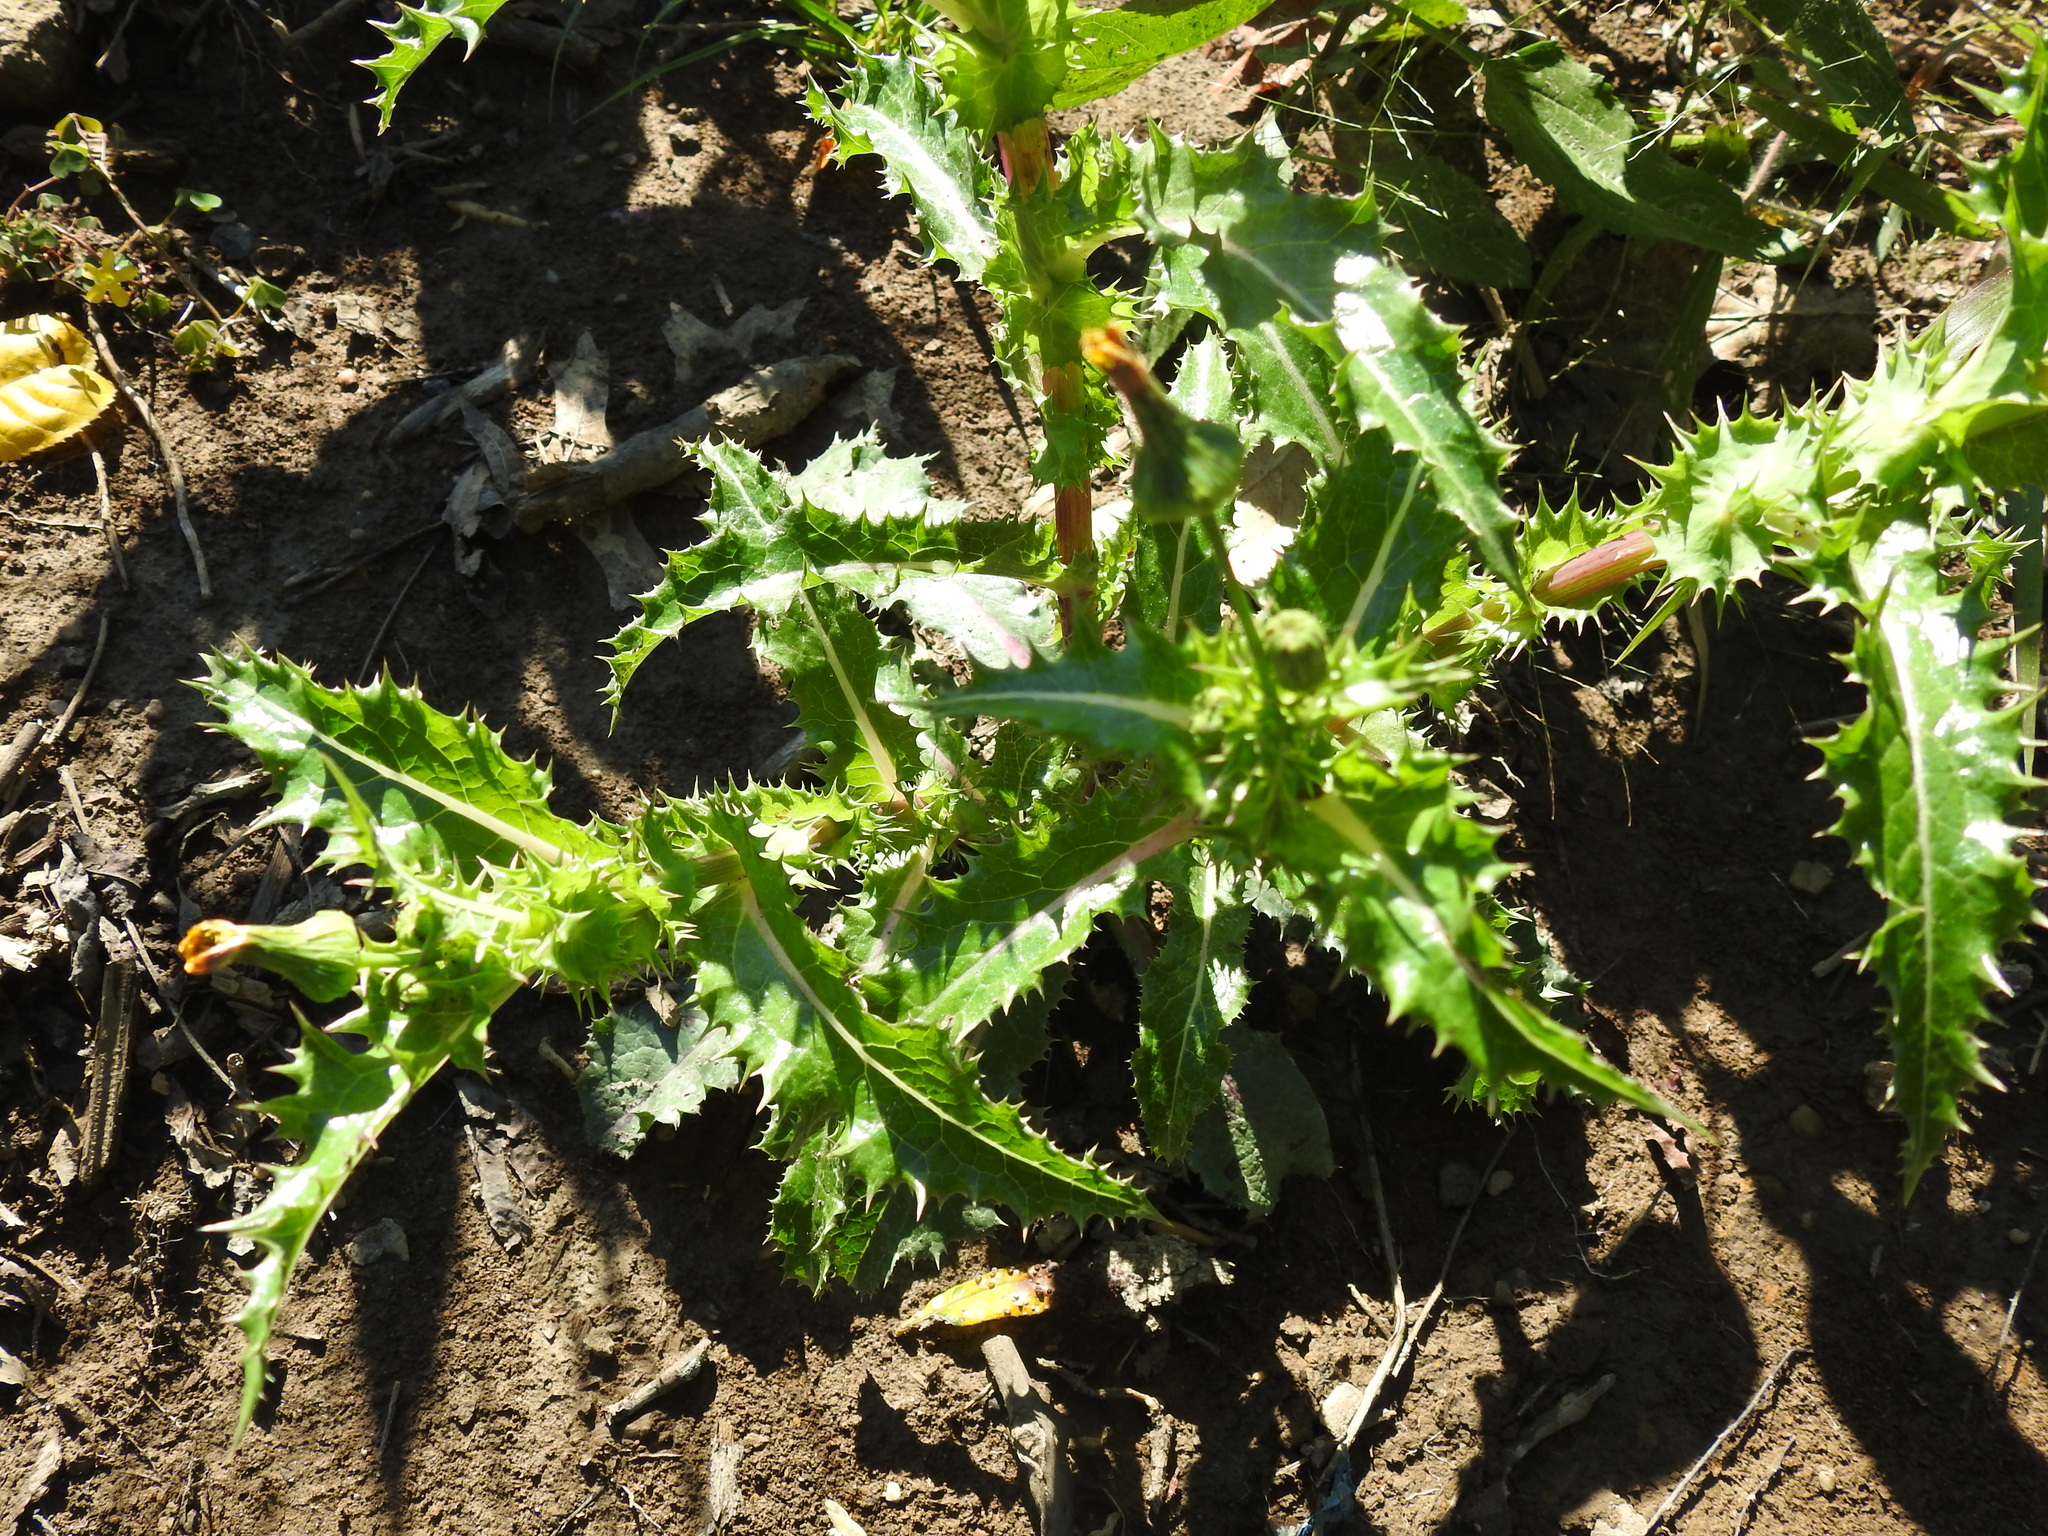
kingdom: Plantae
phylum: Tracheophyta
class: Magnoliopsida
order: Asterales
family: Asteraceae
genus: Sonchus
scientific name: Sonchus asper
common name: Prickly sow-thistle
